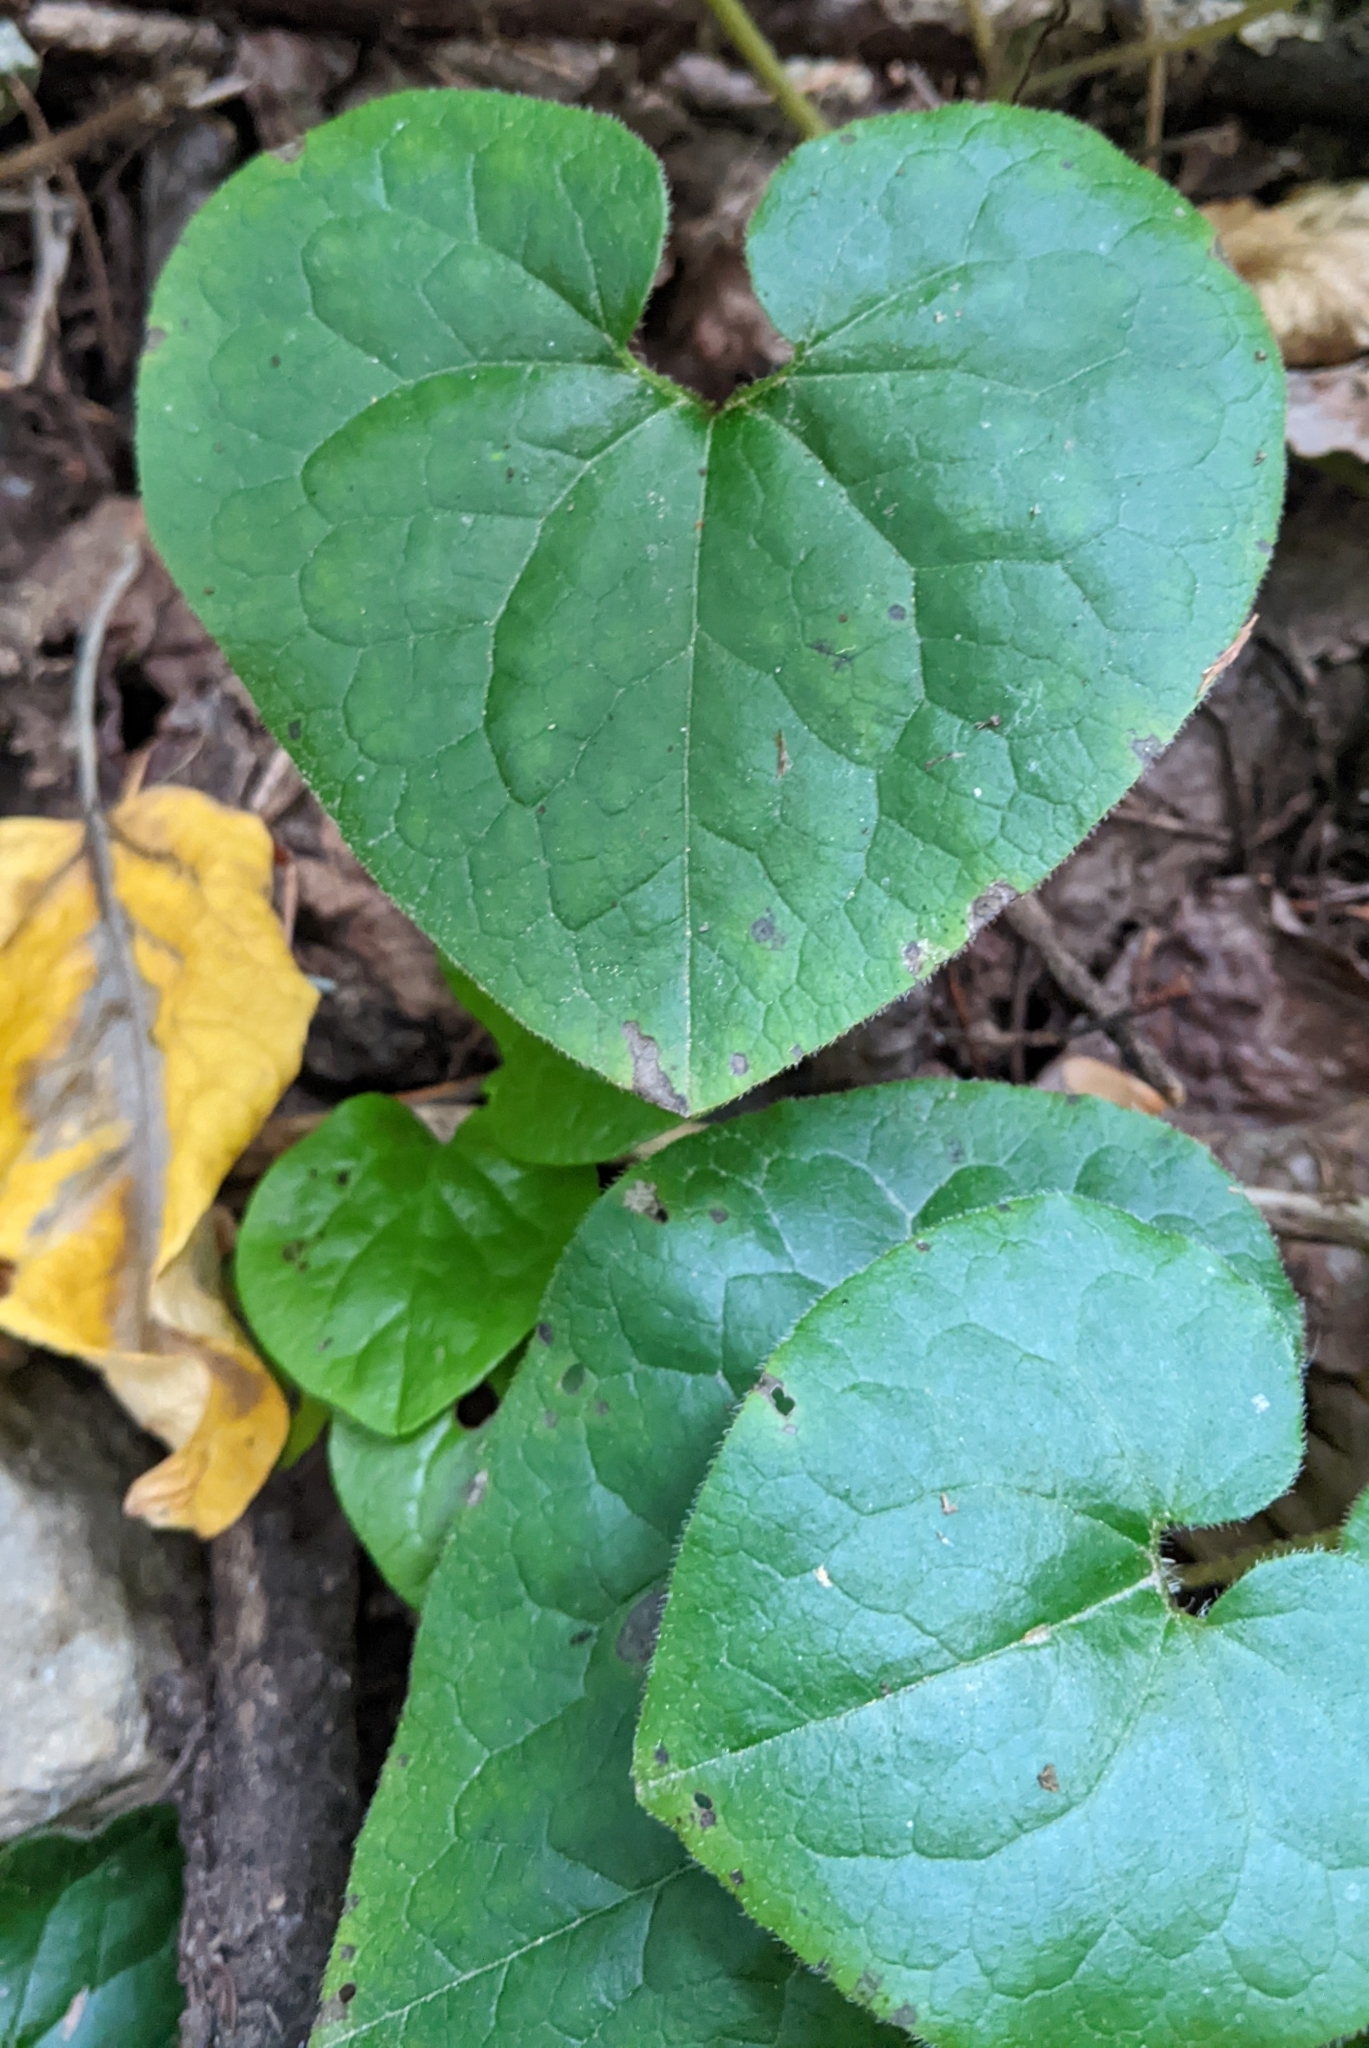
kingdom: Plantae
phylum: Tracheophyta
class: Magnoliopsida
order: Piperales
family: Aristolochiaceae
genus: Asarum
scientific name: Asarum caudatum
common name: Wild ginger
